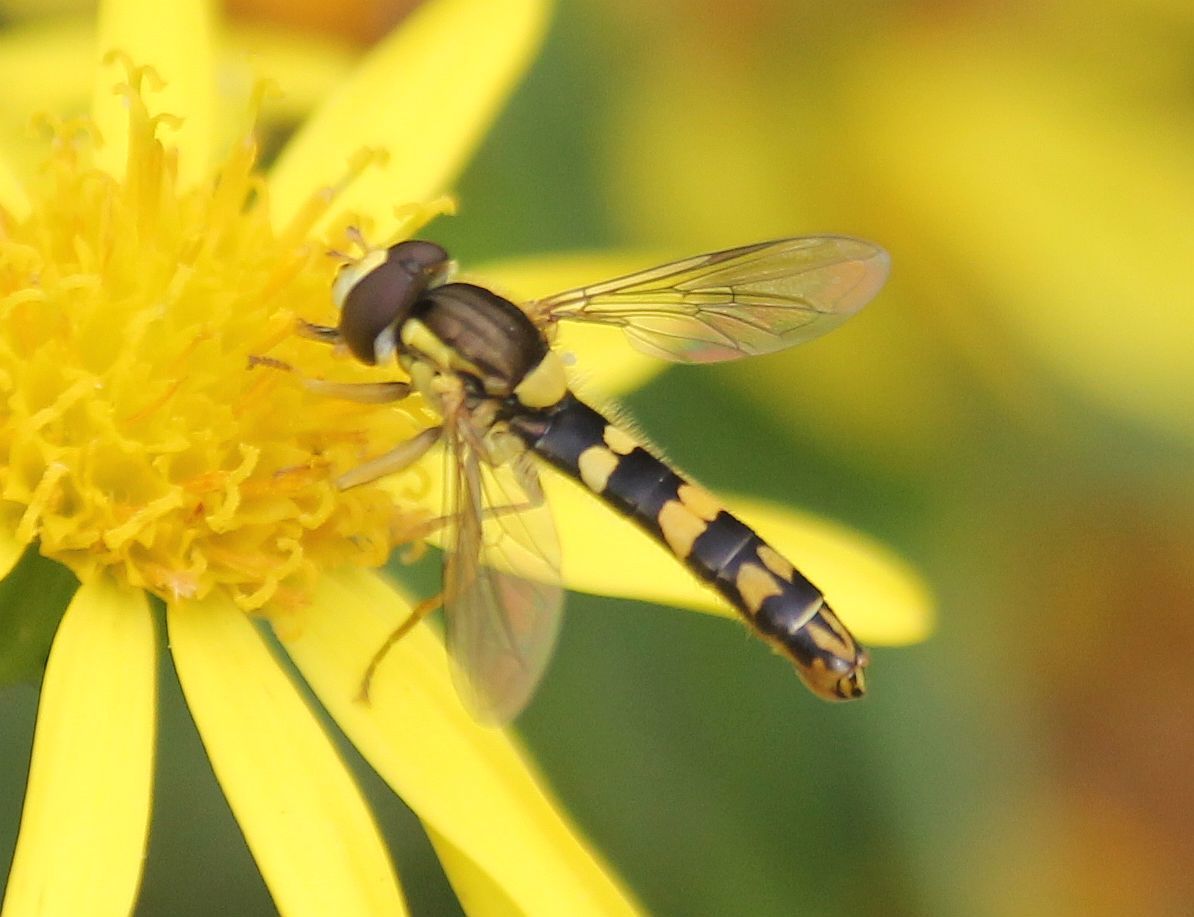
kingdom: Animalia
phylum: Arthropoda
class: Insecta
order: Diptera
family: Syrphidae
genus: Sphaerophoria
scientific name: Sphaerophoria scripta
